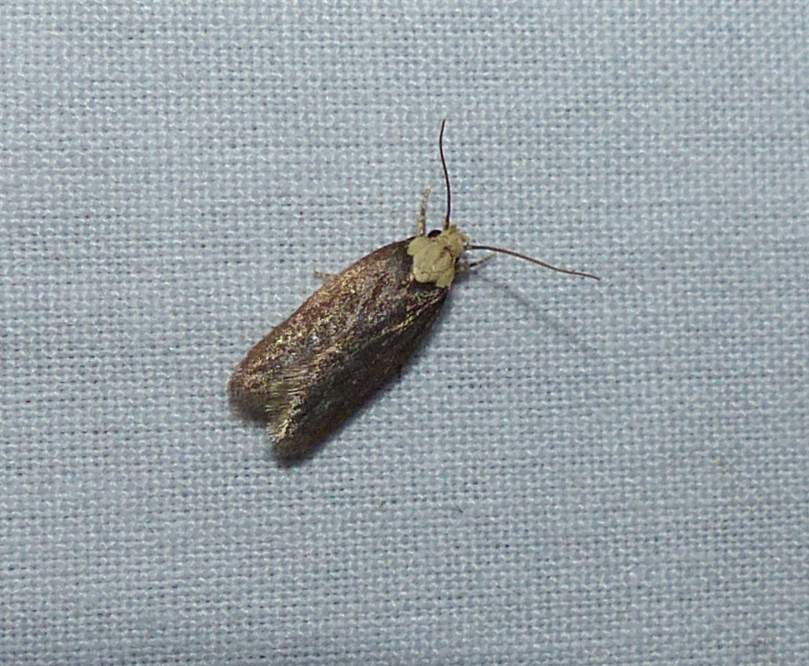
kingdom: Animalia
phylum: Arthropoda
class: Insecta
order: Lepidoptera
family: Depressariidae
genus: Depressaria
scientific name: Depressaria depressana
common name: Lost flat-body
